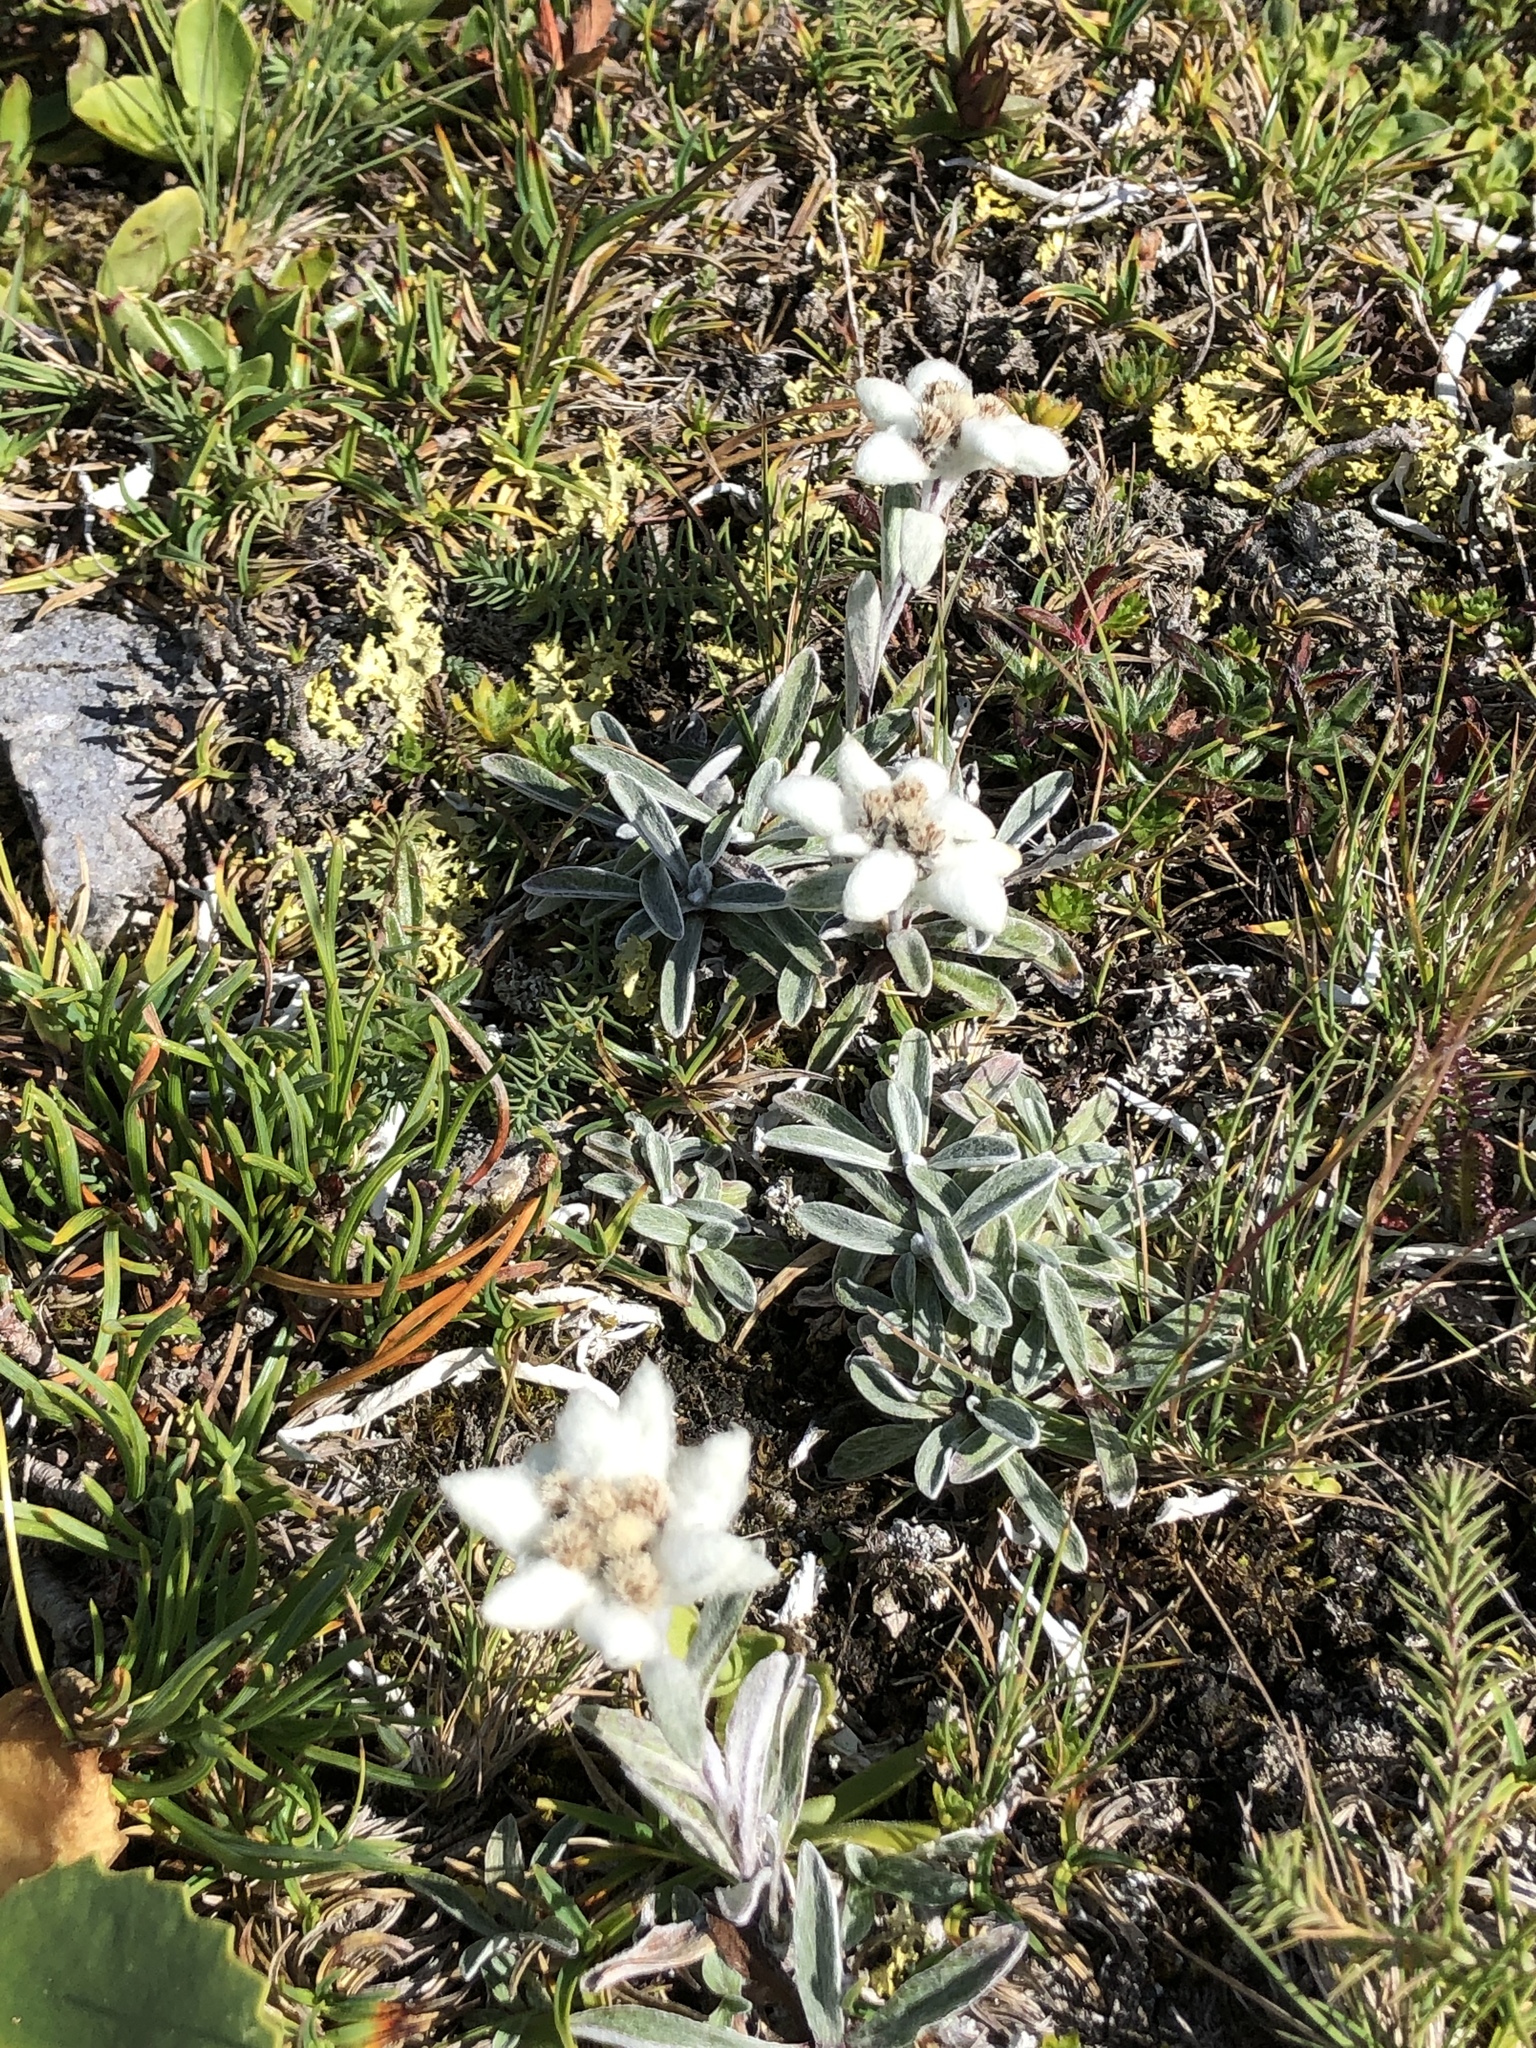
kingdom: Plantae
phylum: Tracheophyta
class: Magnoliopsida
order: Asterales
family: Asteraceae
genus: Leontopodium
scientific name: Leontopodium nivale
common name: Edelweiss
